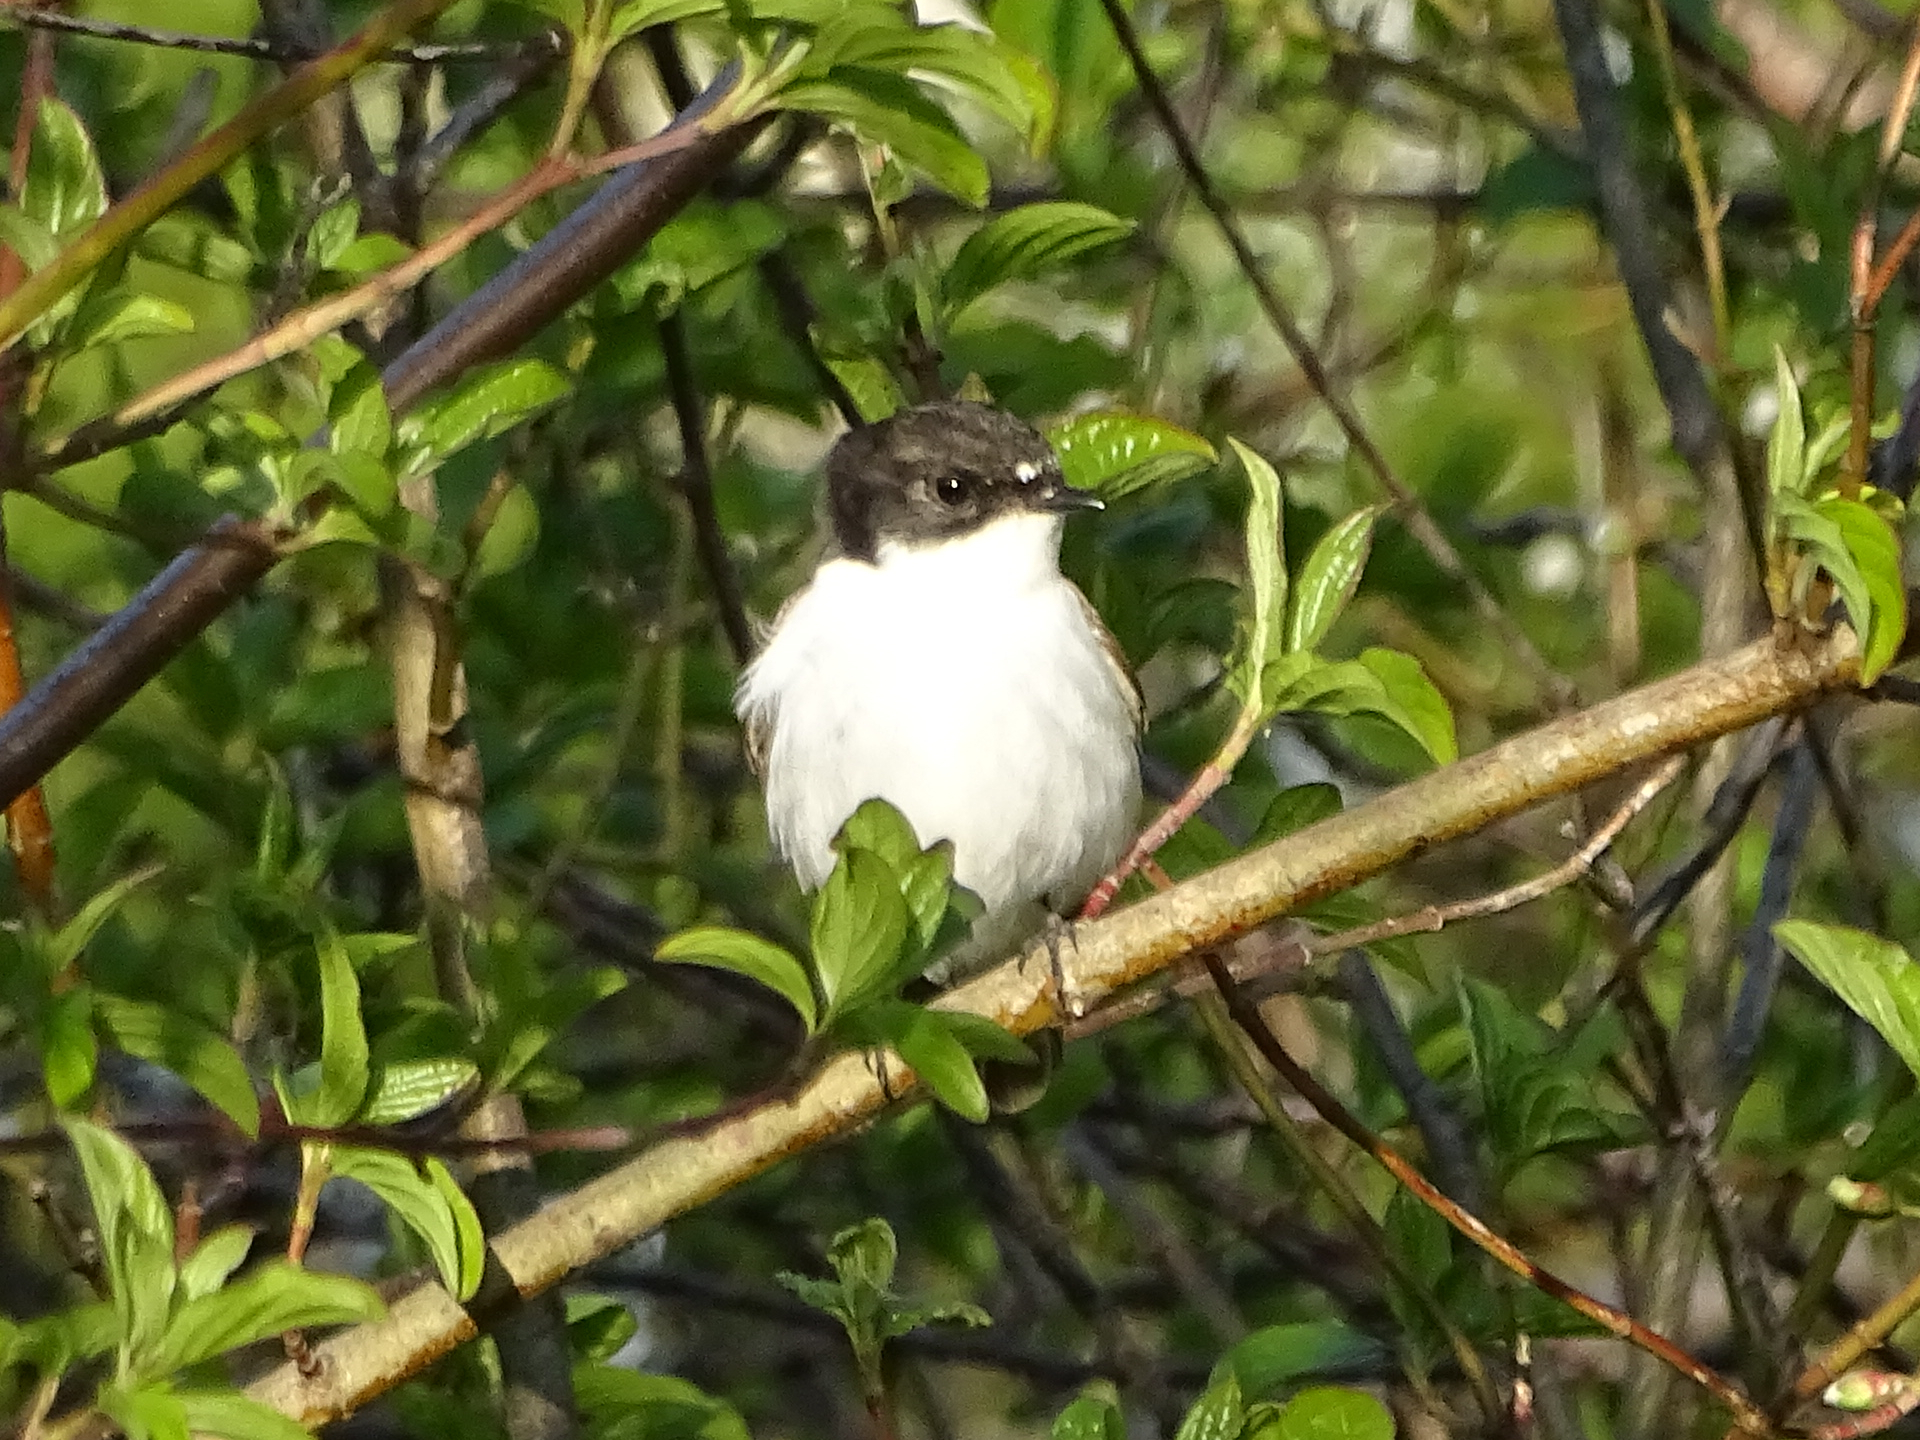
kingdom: Animalia
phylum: Chordata
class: Aves
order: Passeriformes
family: Muscicapidae
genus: Ficedula
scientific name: Ficedula hypoleuca
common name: European pied flycatcher
